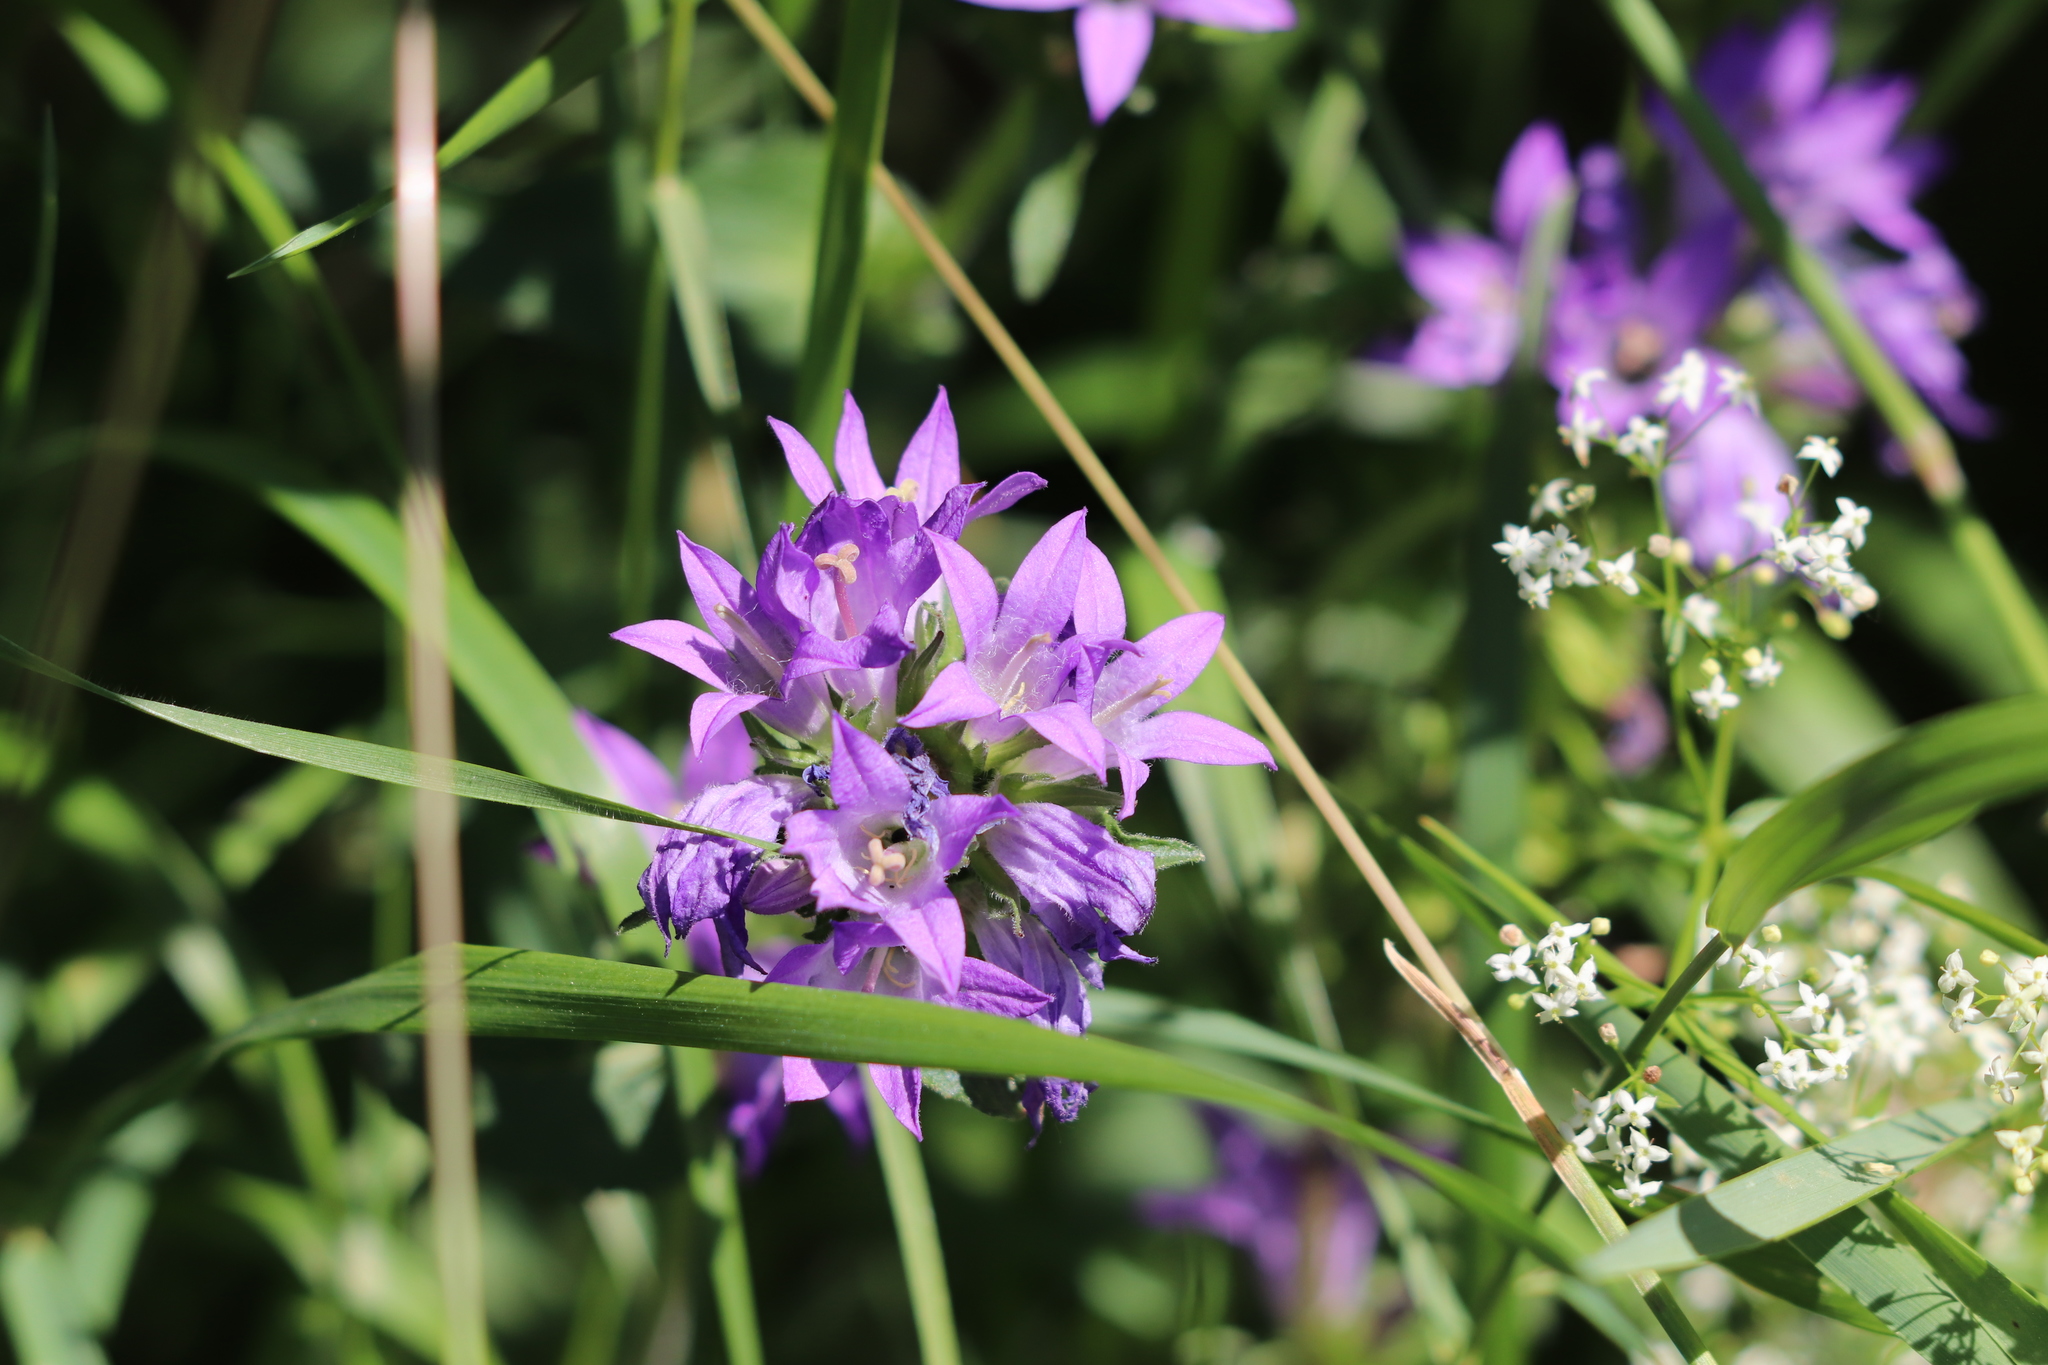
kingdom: Plantae
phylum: Tracheophyta
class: Magnoliopsida
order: Asterales
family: Campanulaceae
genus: Campanula
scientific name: Campanula glomerata
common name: Clustered bellflower
